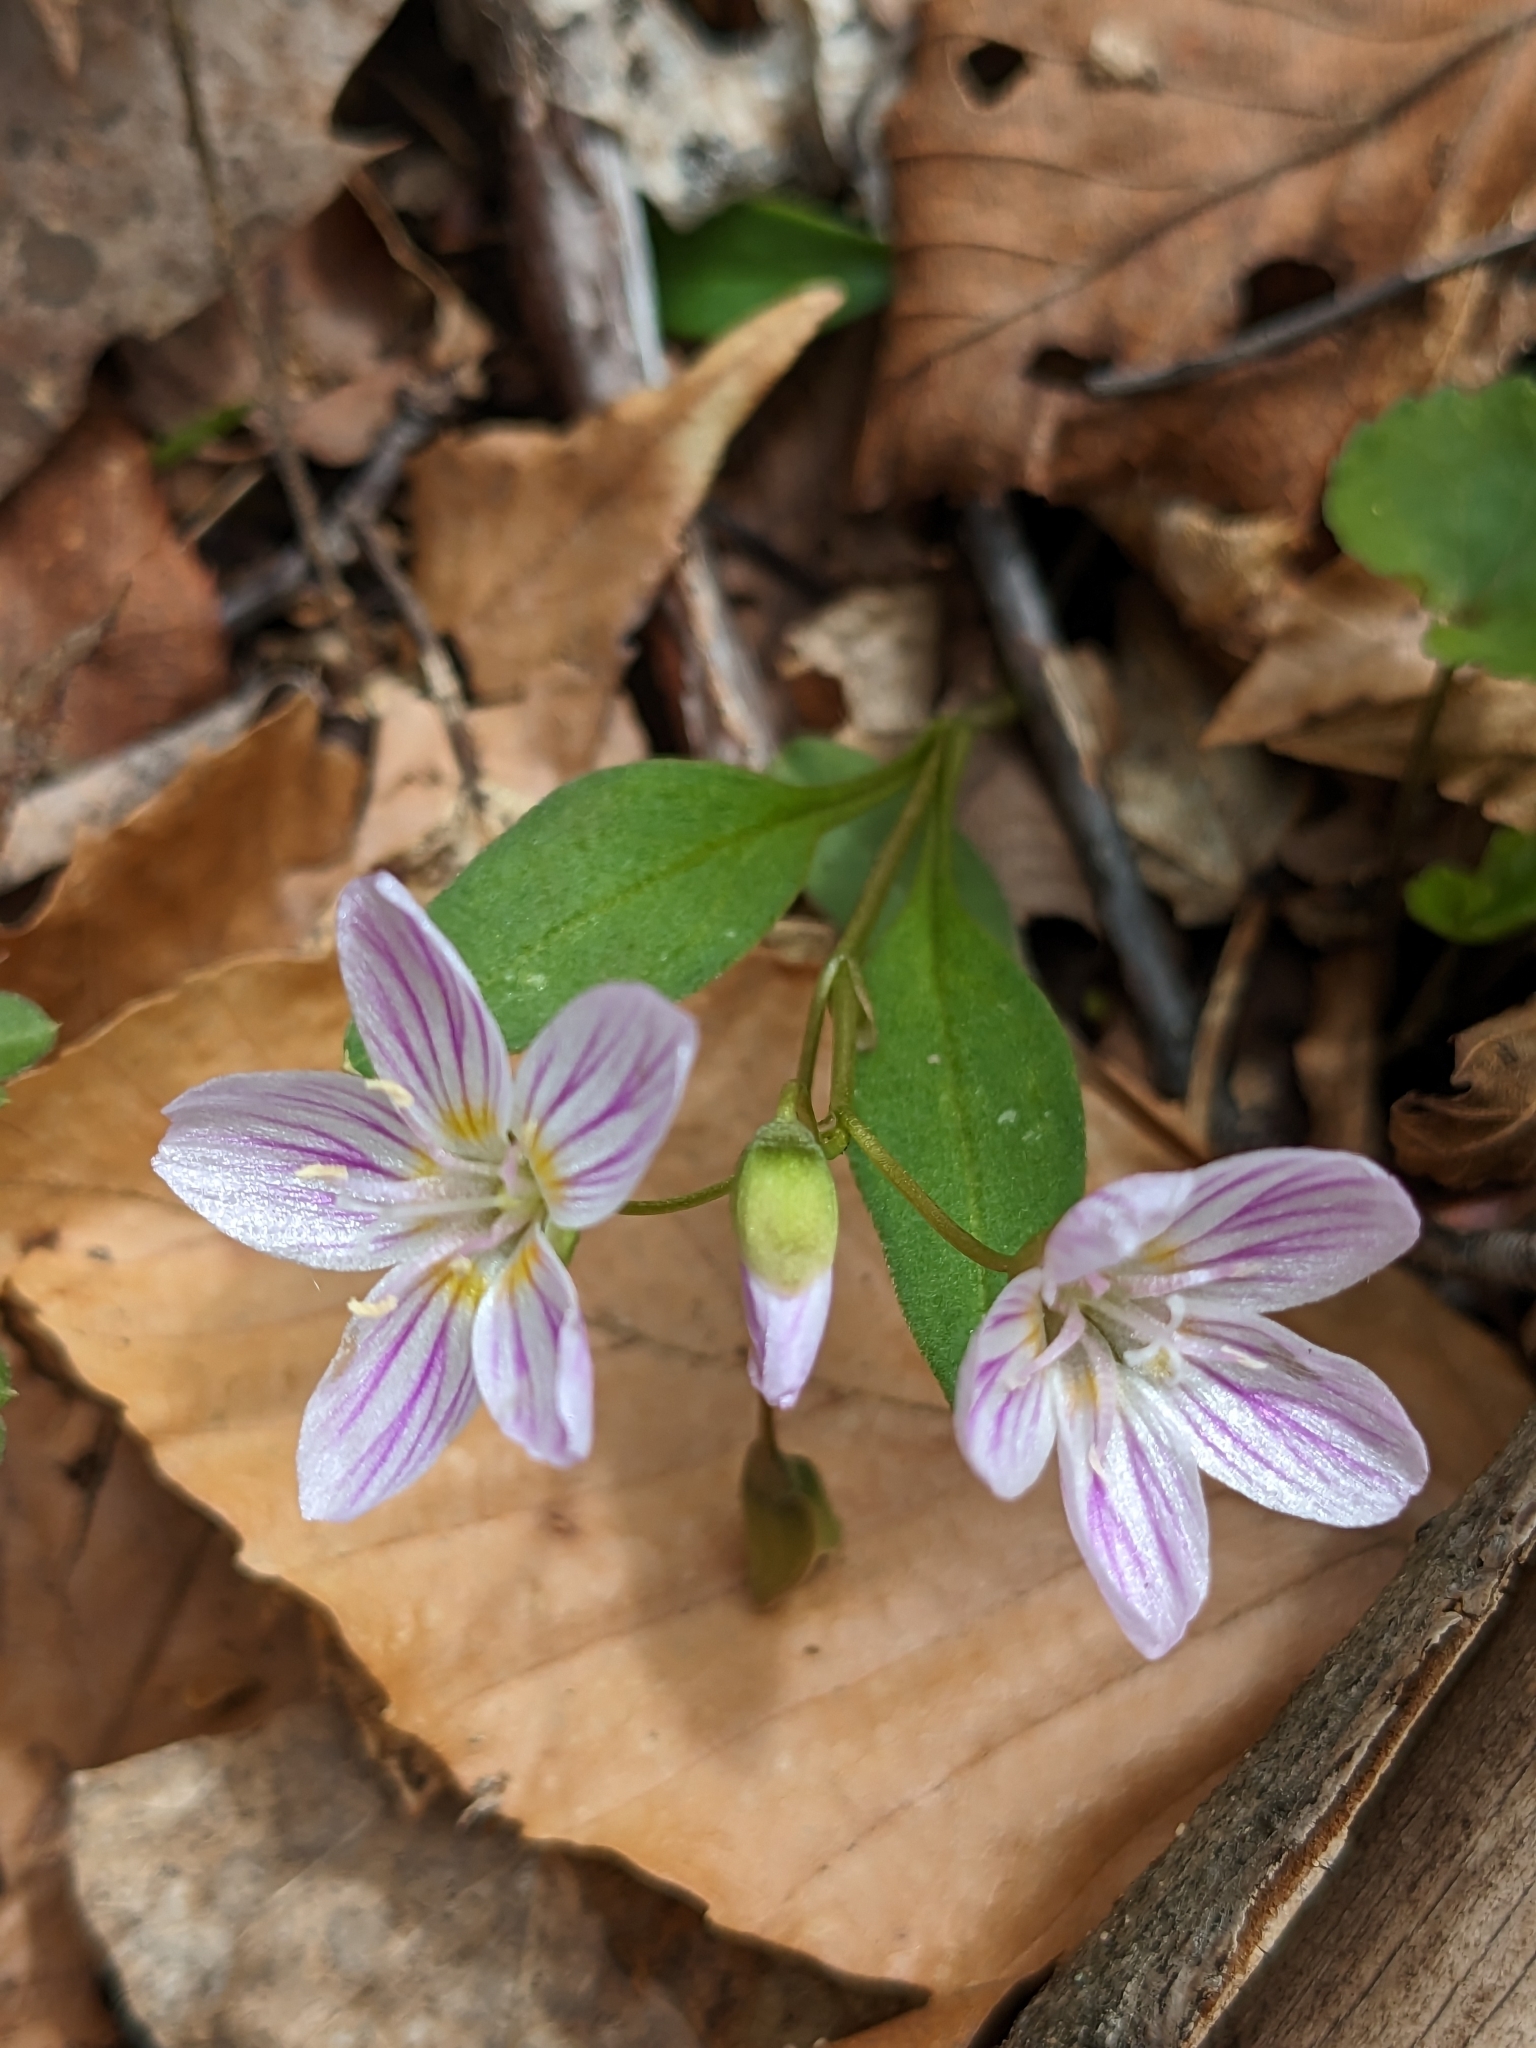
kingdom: Plantae
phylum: Tracheophyta
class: Magnoliopsida
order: Caryophyllales
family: Montiaceae
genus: Claytonia
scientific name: Claytonia caroliniana
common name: Carolina spring beauty
